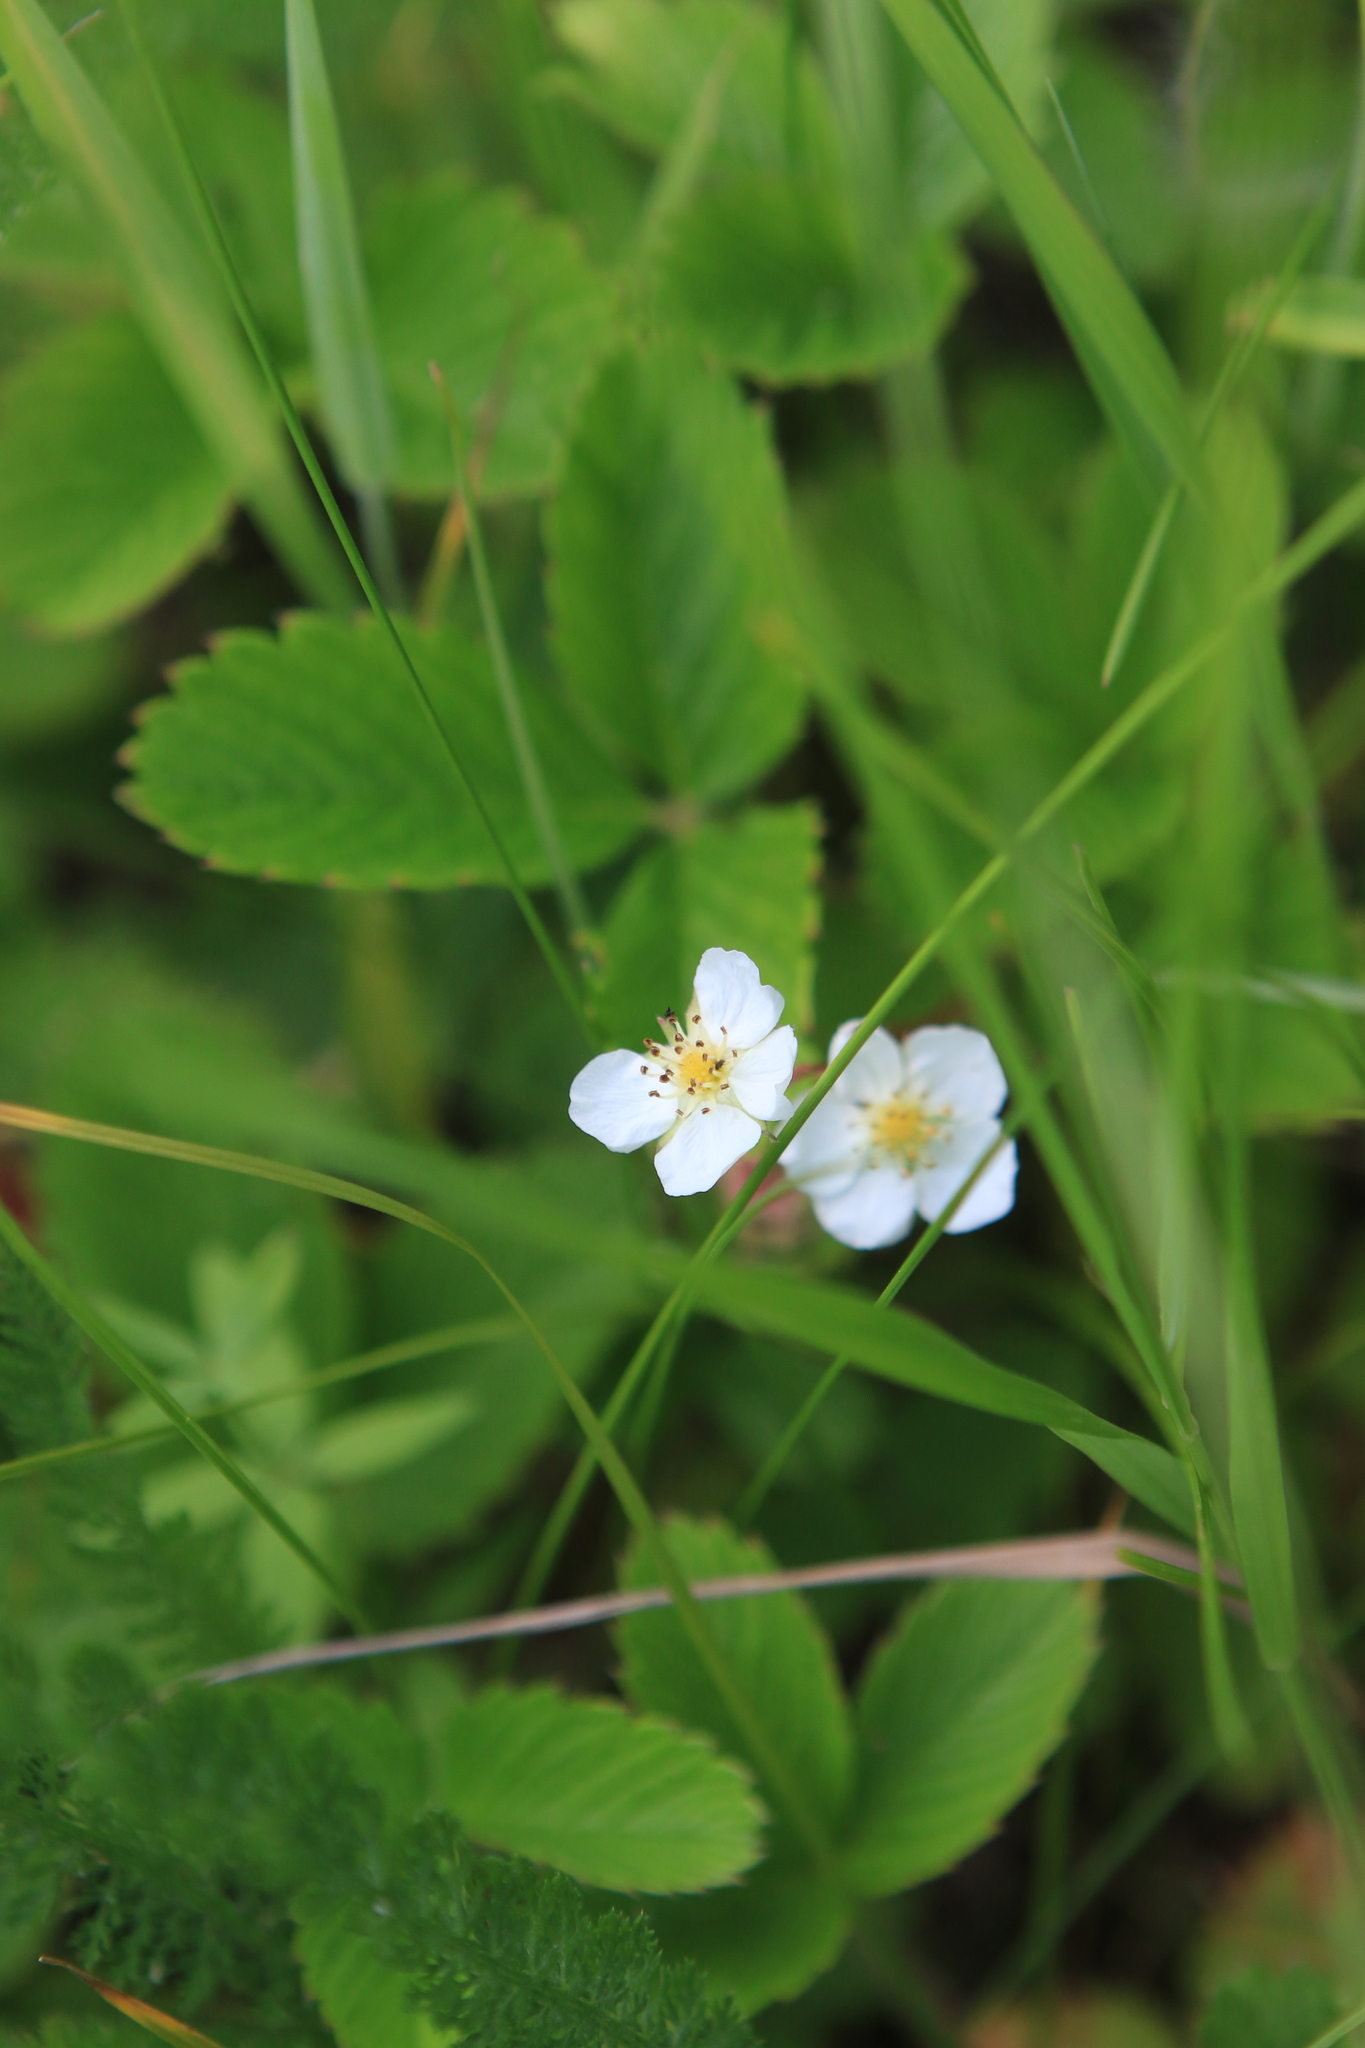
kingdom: Plantae
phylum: Tracheophyta
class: Magnoliopsida
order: Rosales
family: Rosaceae
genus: Fragaria
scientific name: Fragaria viridis
